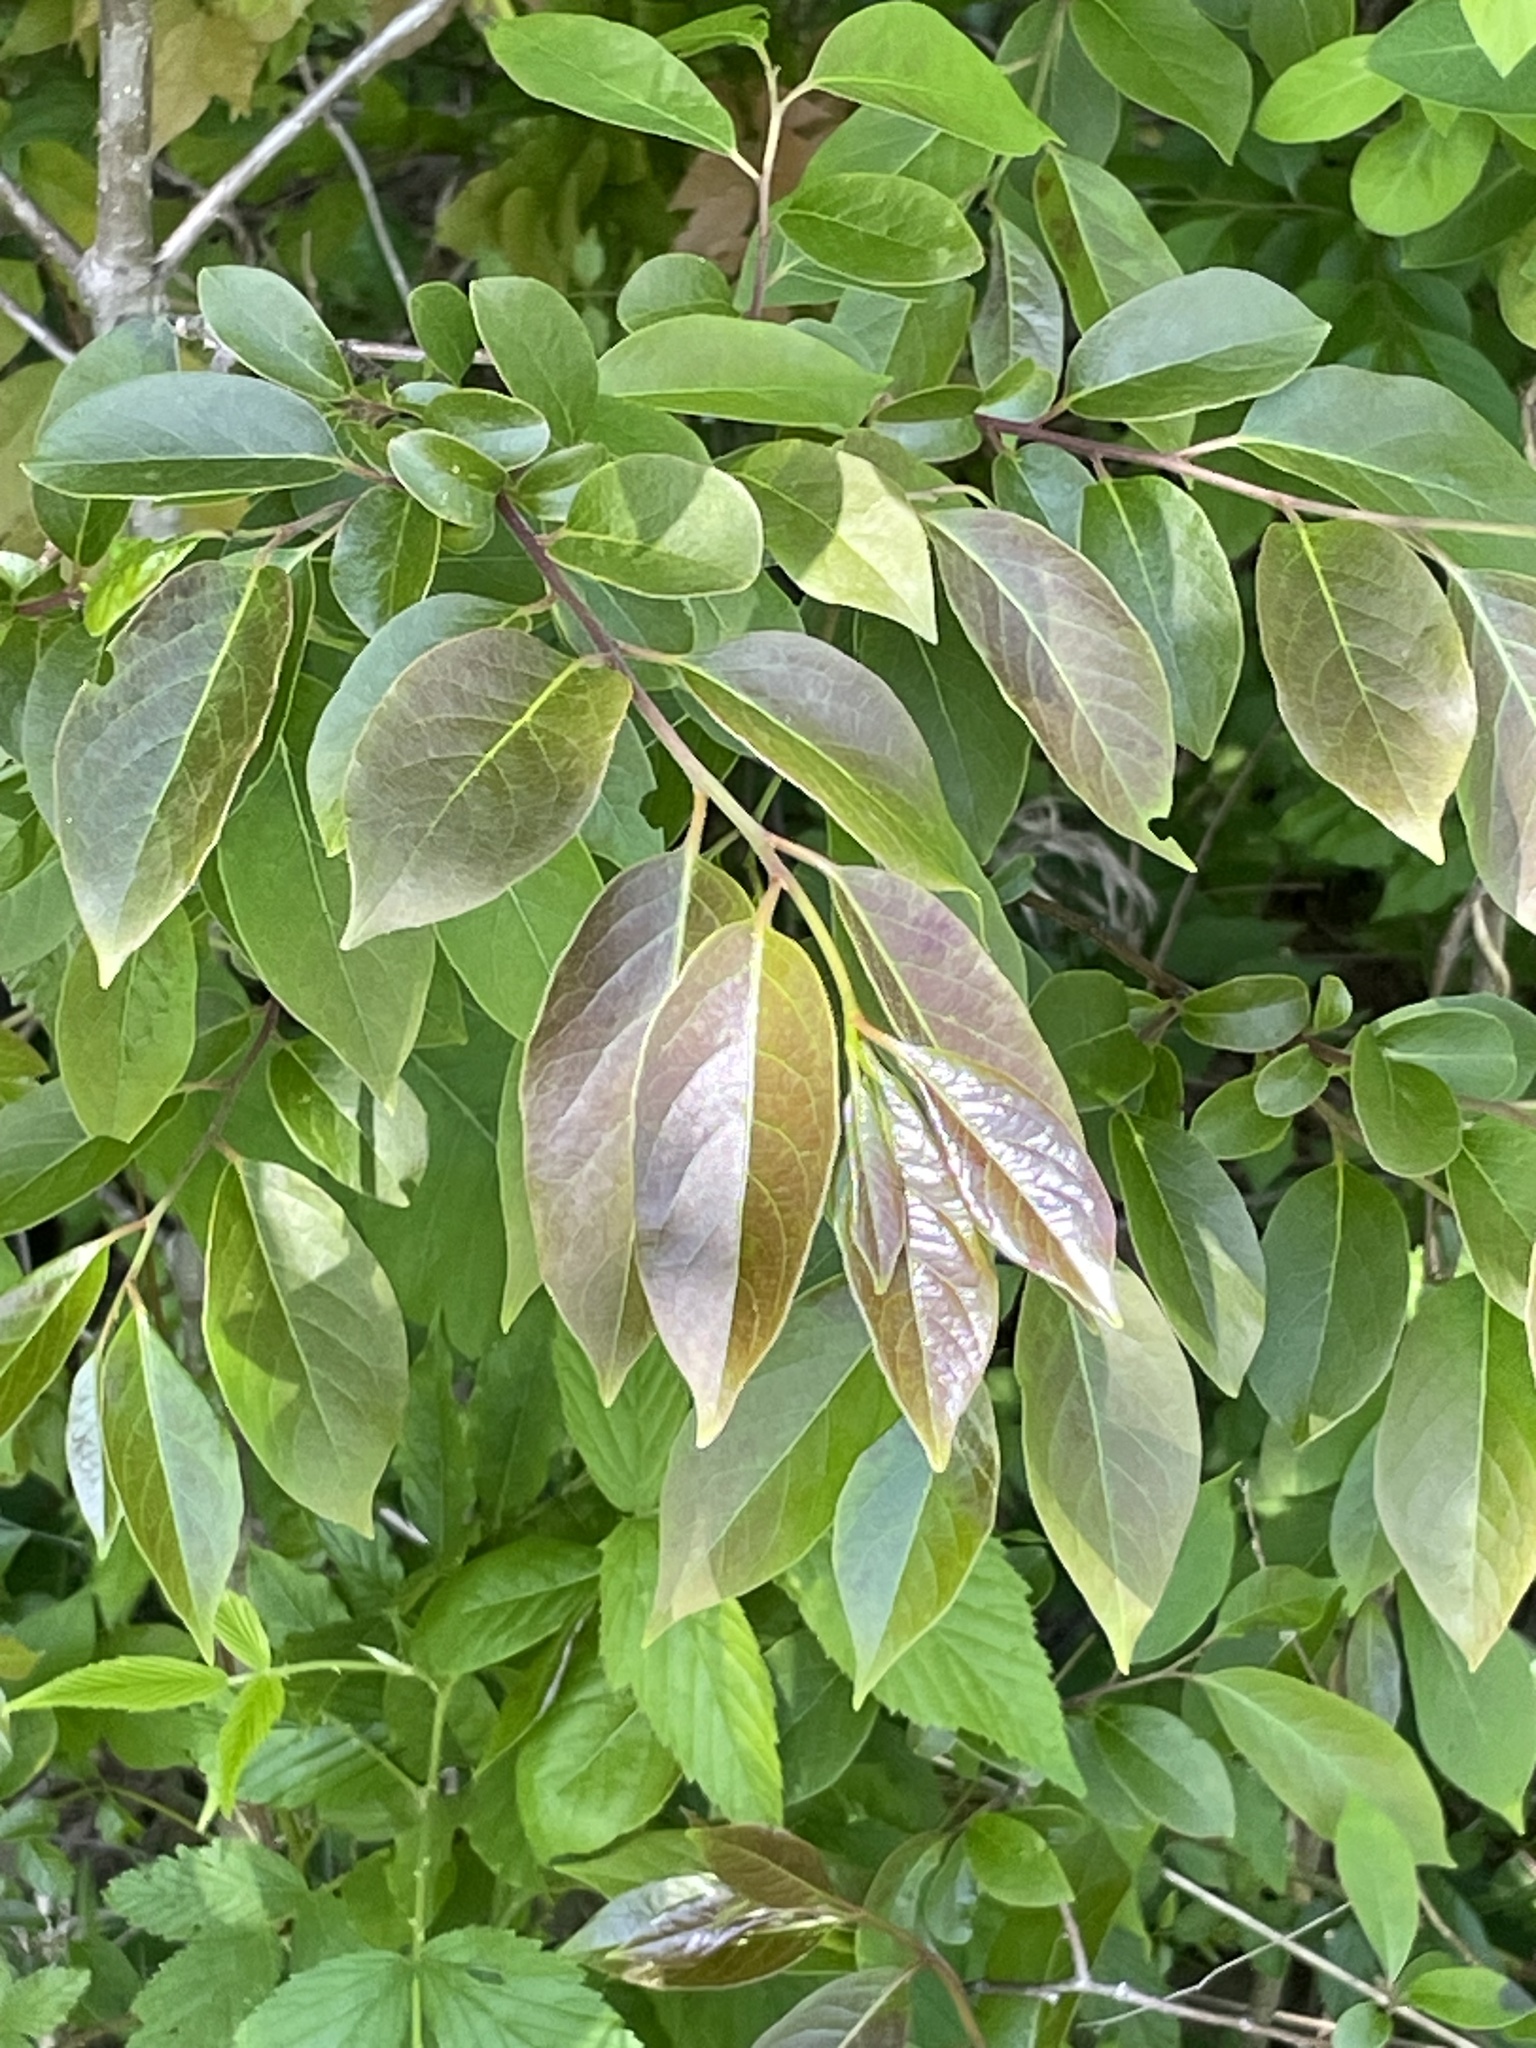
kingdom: Plantae
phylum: Tracheophyta
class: Magnoliopsida
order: Ericales
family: Ebenaceae
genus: Diospyros
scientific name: Diospyros virginiana
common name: Persimmon
